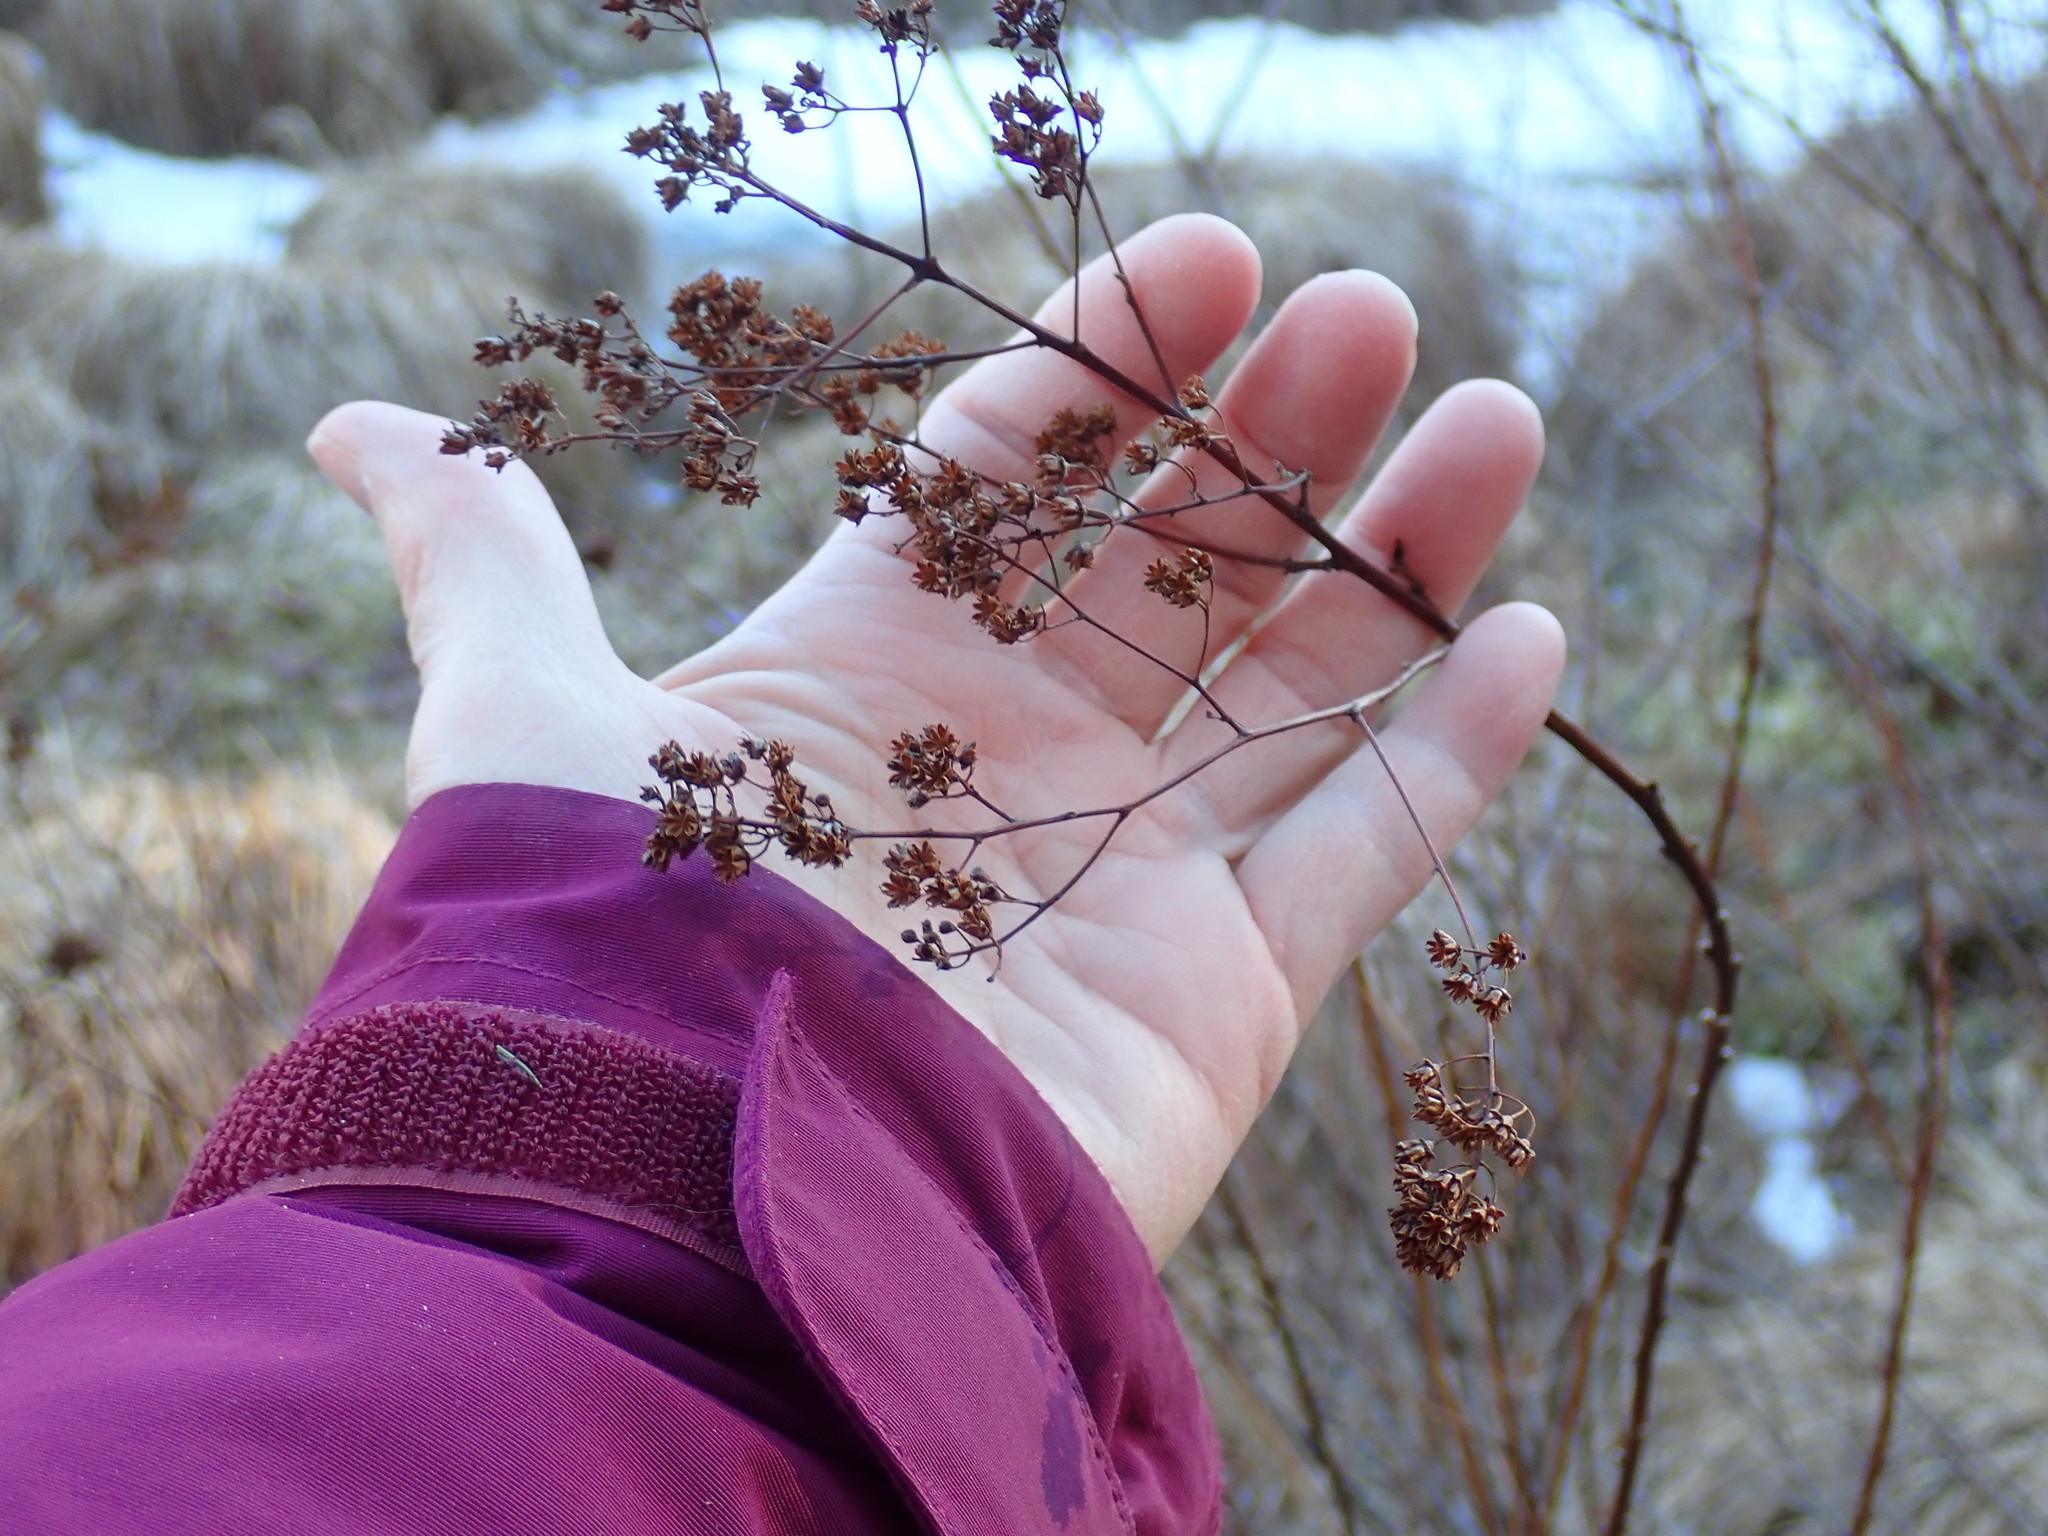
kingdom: Plantae
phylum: Tracheophyta
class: Magnoliopsida
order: Rosales
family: Rosaceae
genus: Spiraea
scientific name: Spiraea alba
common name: Pale bridewort
